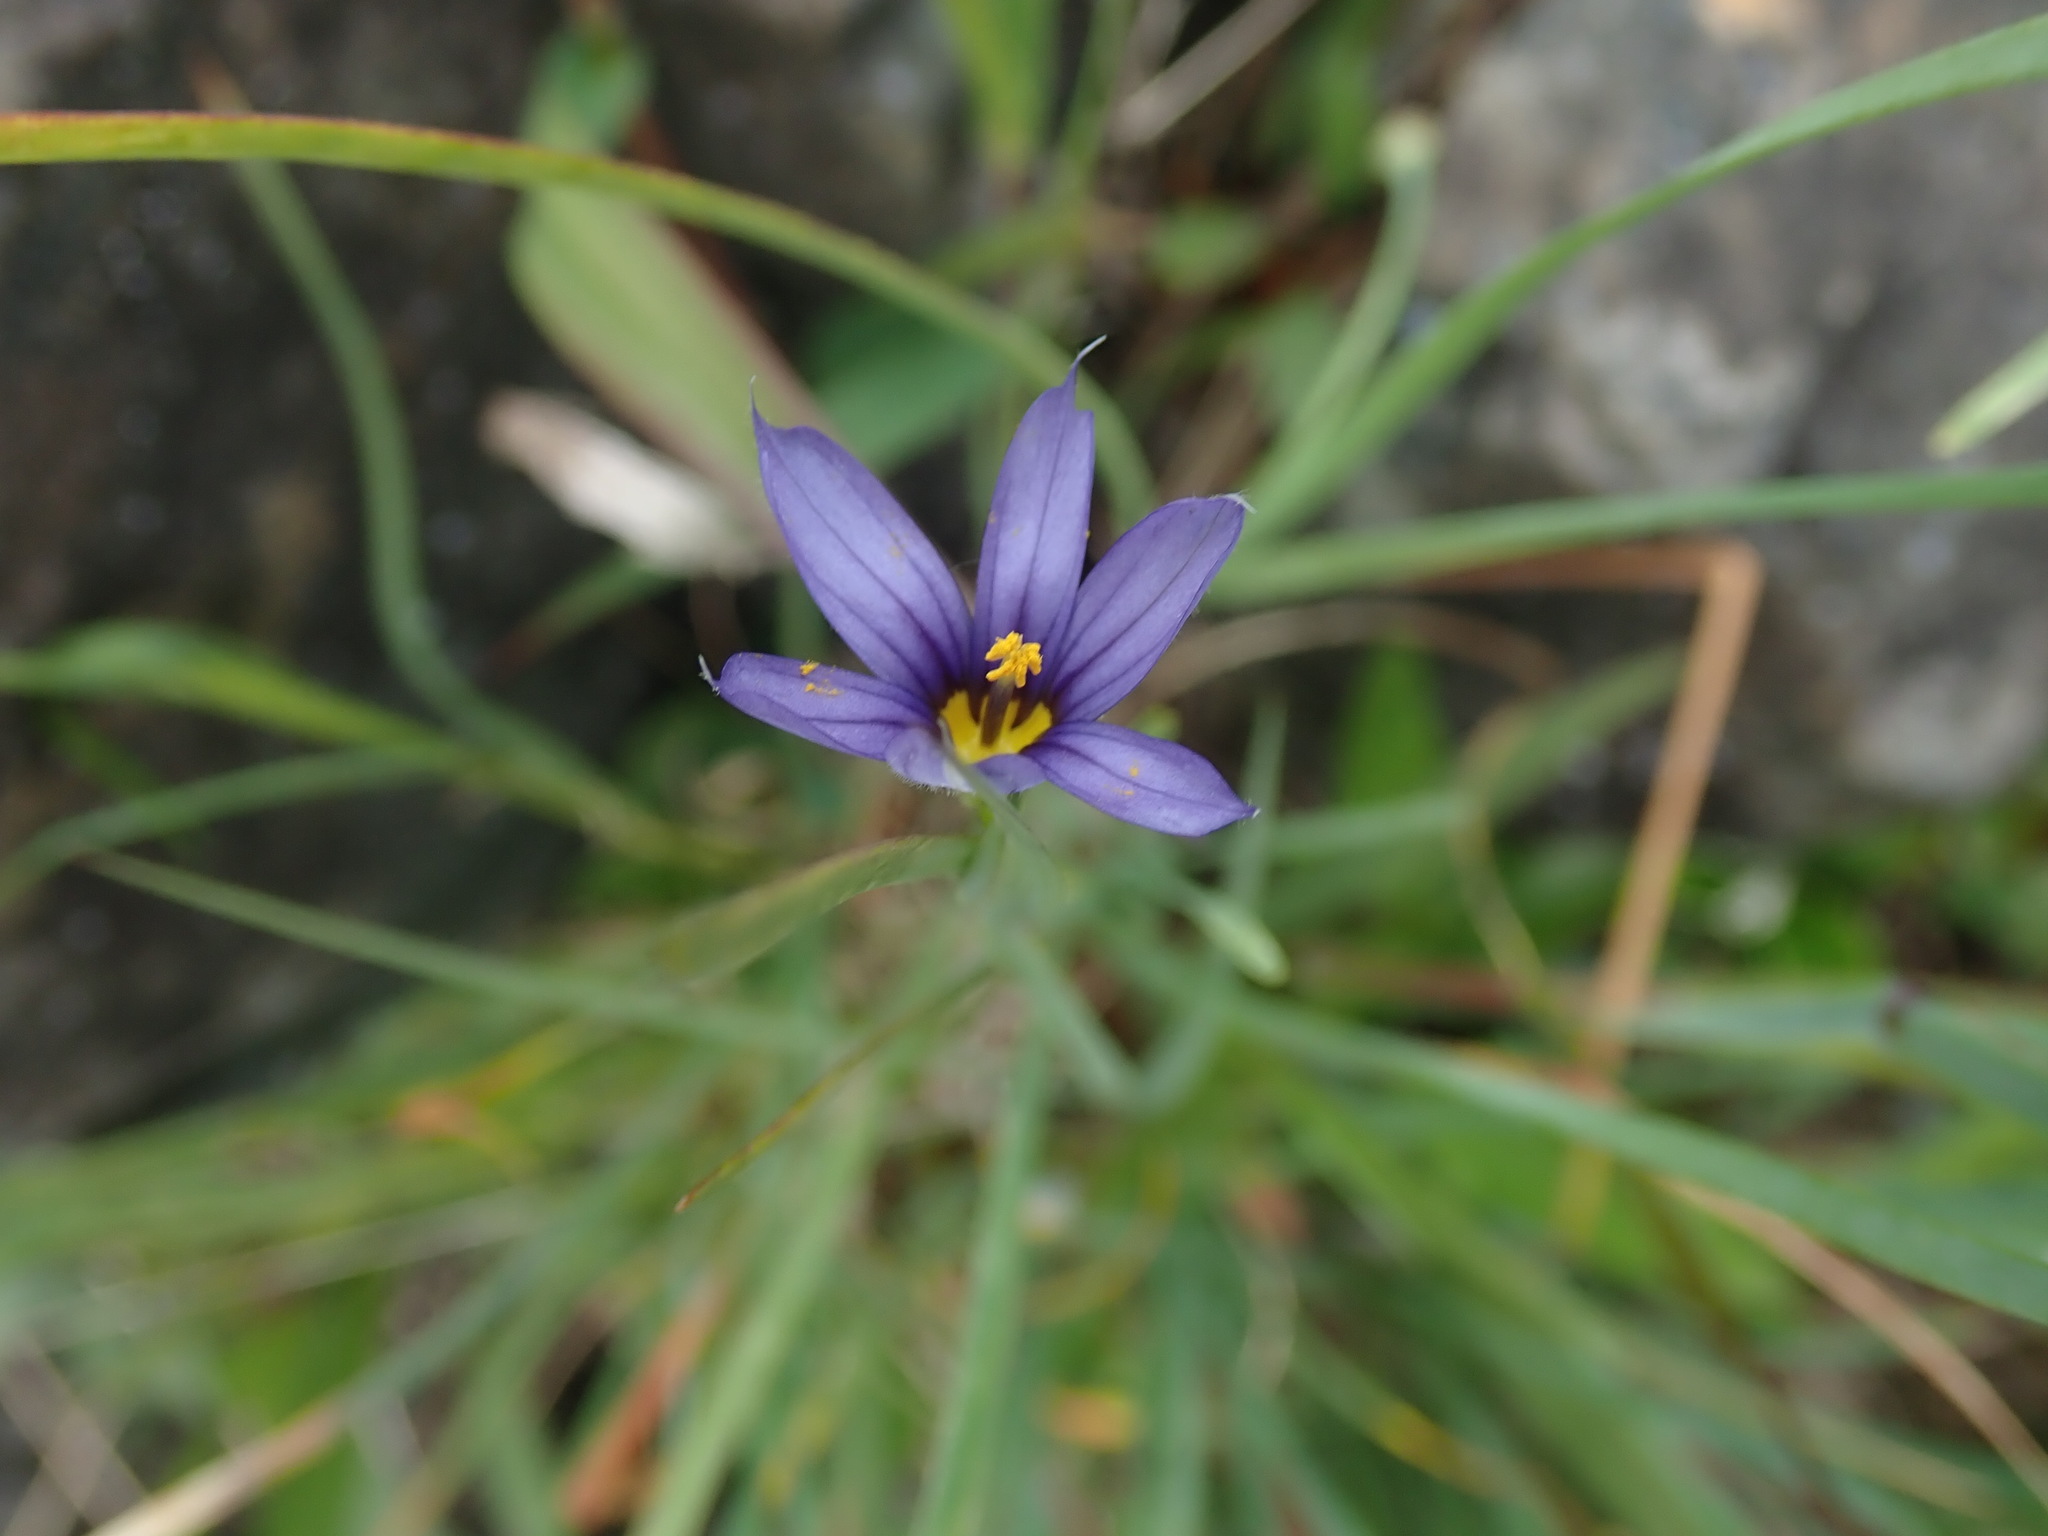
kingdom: Plantae
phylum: Tracheophyta
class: Liliopsida
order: Asparagales
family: Iridaceae
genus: Sisyrinchium
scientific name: Sisyrinchium idahoense
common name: Idaho blue-eyed-grass
